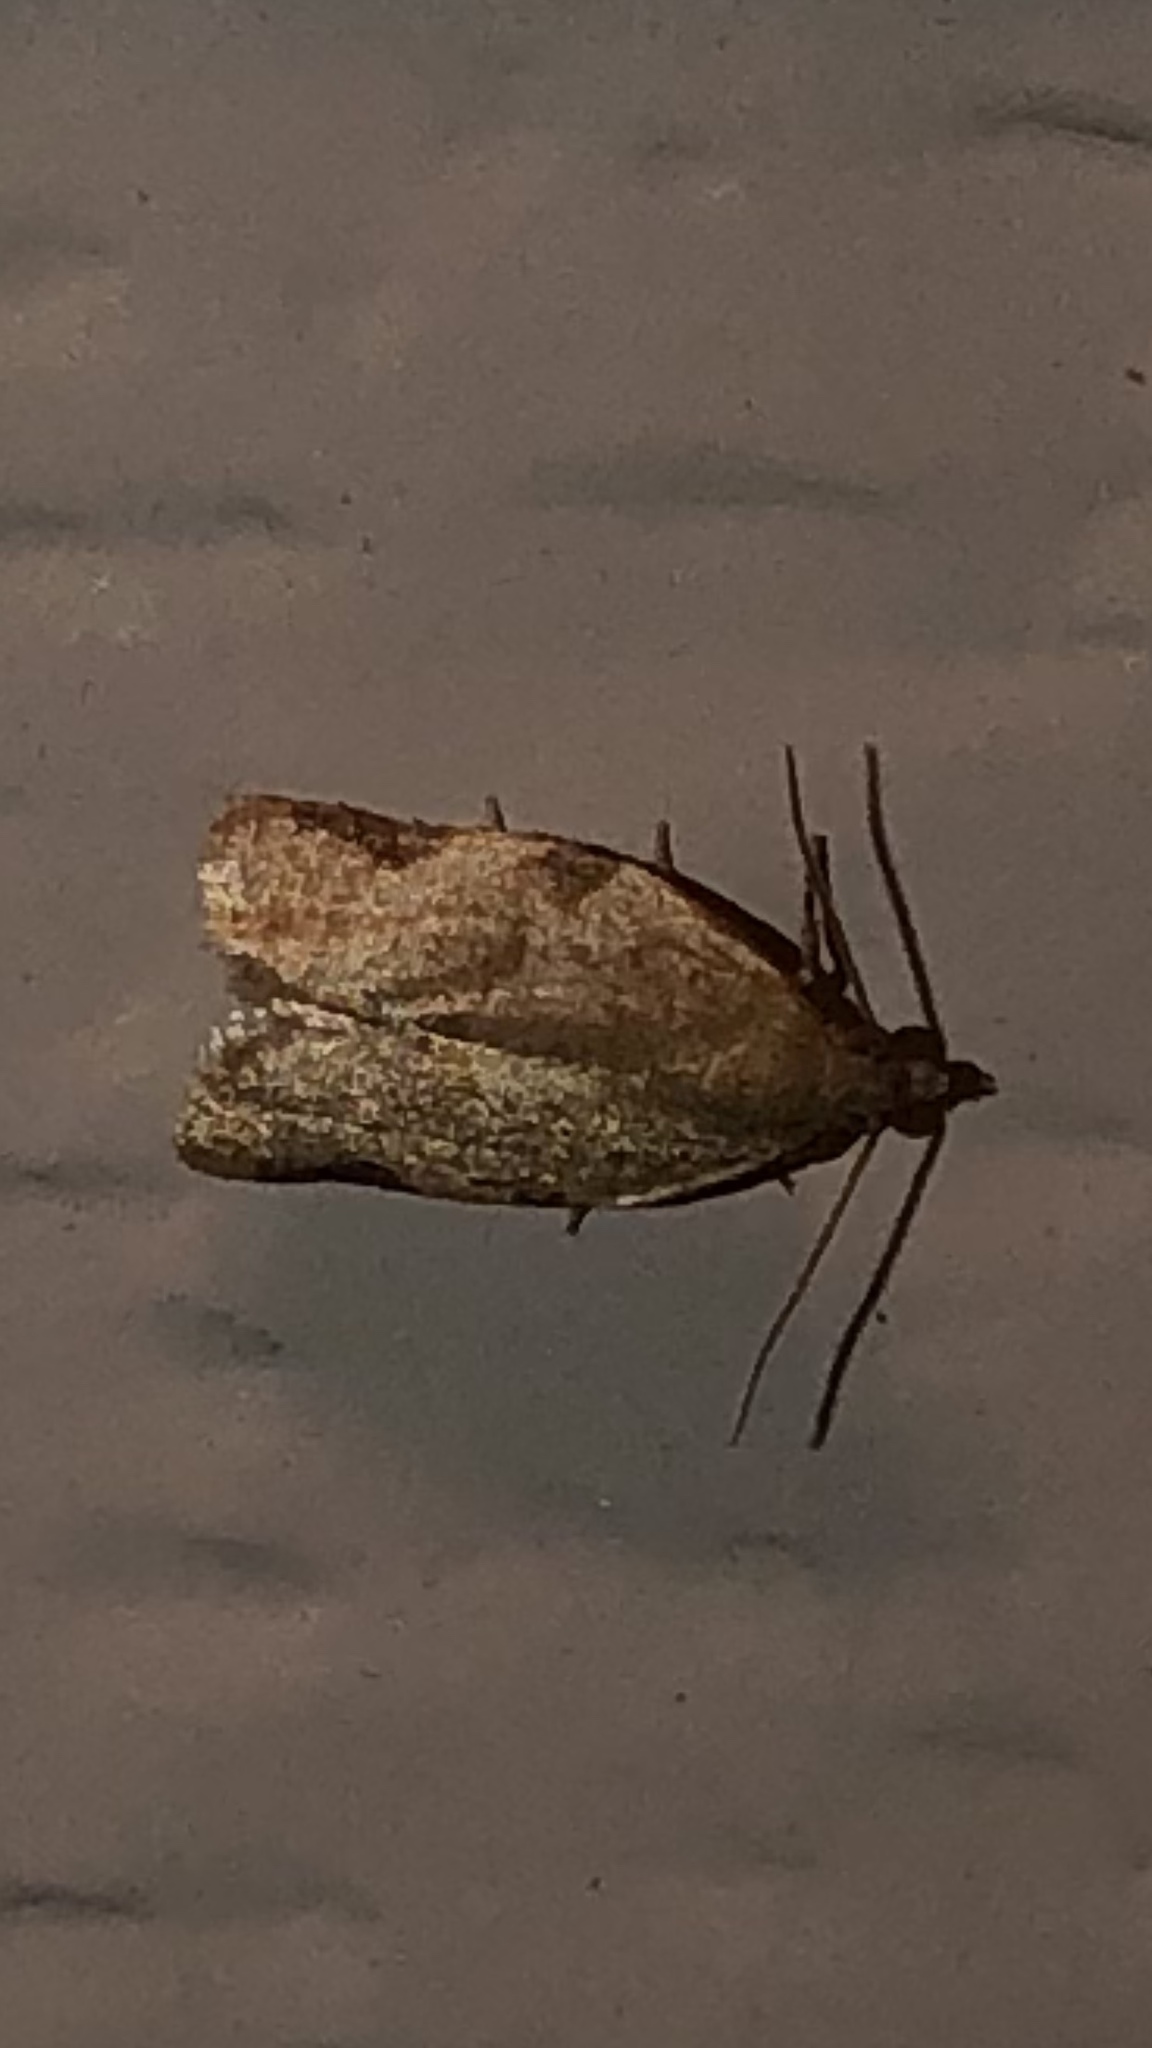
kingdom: Animalia
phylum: Arthropoda
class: Insecta
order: Lepidoptera
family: Tortricidae
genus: Clepsis
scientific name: Clepsis virescana
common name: Greenish apple moth
